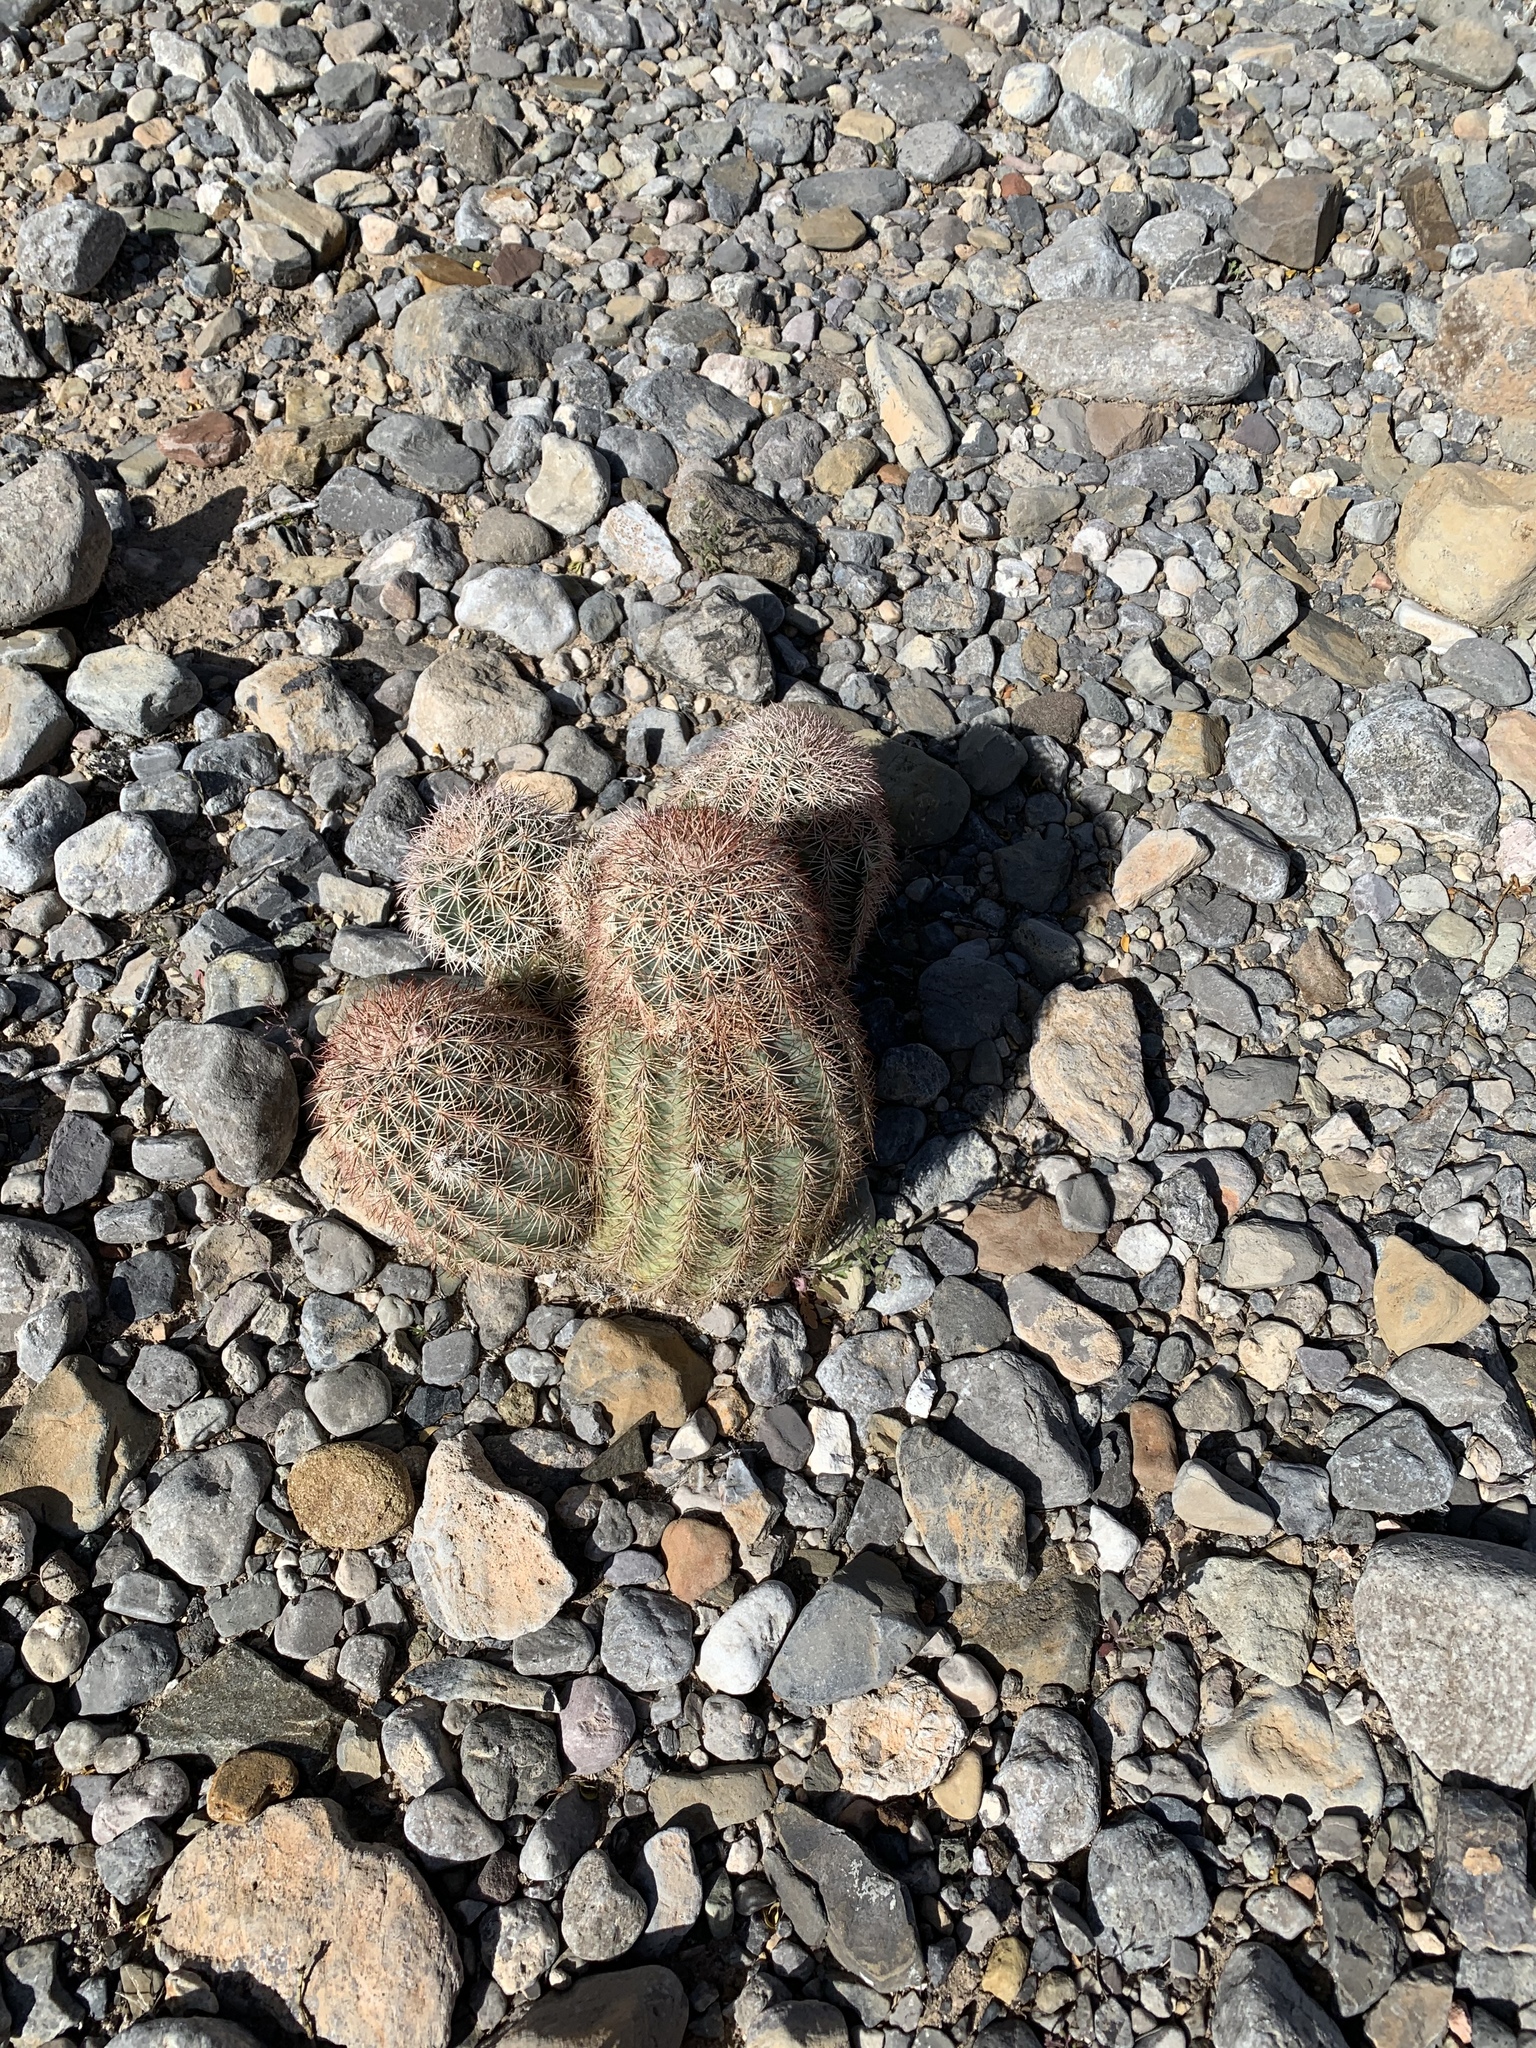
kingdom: Plantae
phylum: Tracheophyta
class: Magnoliopsida
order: Caryophyllales
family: Cactaceae
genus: Echinocereus
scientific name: Echinocereus dasyacanthus
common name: Spiny hedgehog cactus
